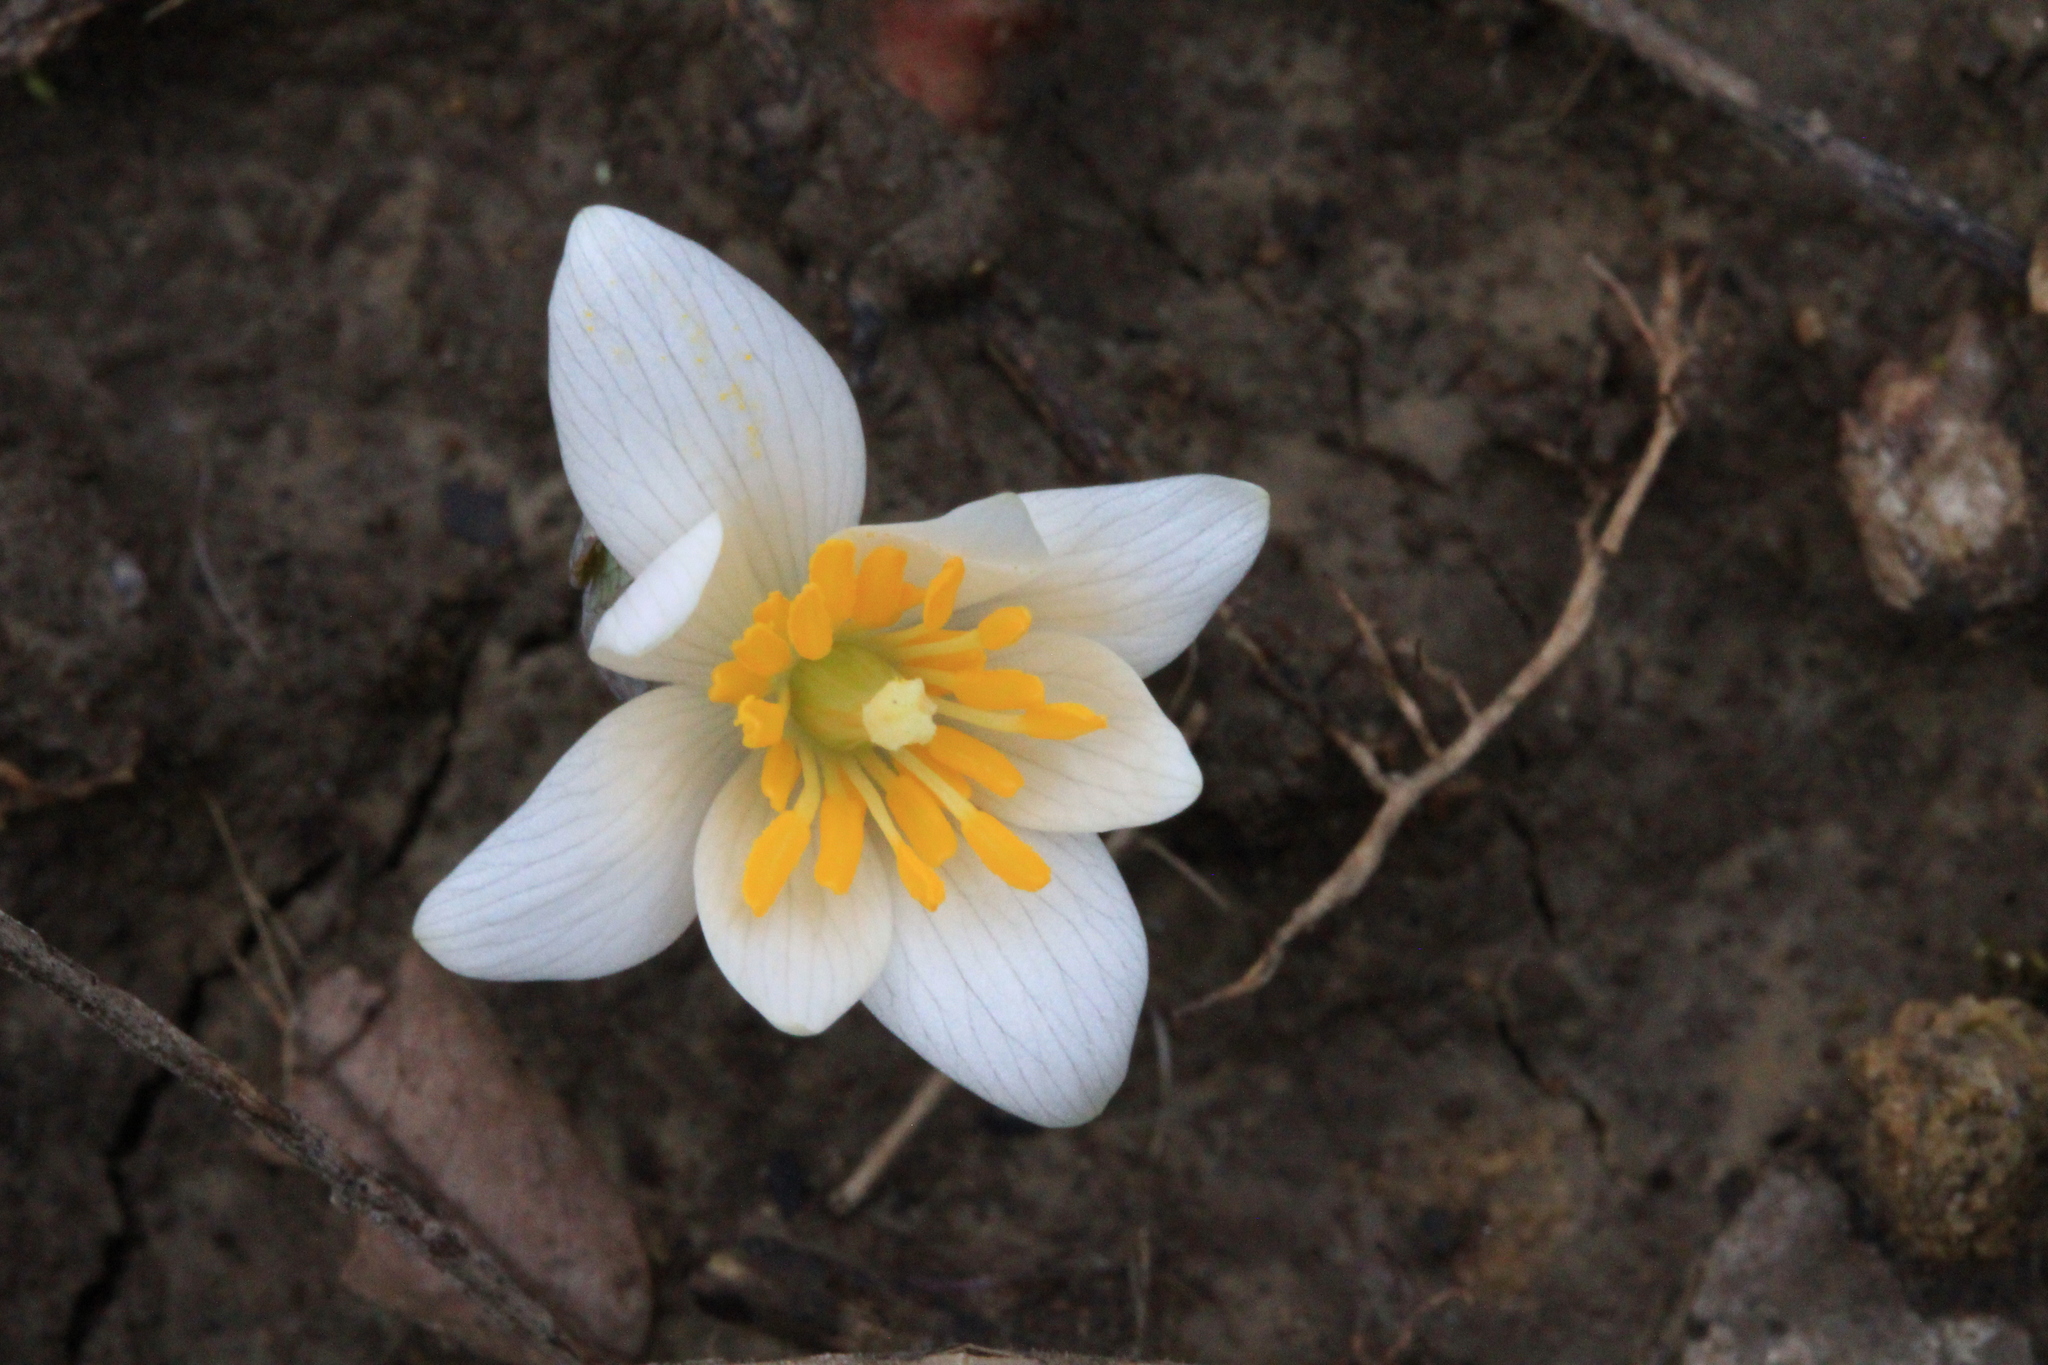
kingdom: Plantae
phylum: Tracheophyta
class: Magnoliopsida
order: Ranunculales
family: Papaveraceae
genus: Sanguinaria
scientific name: Sanguinaria canadensis
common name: Bloodroot
